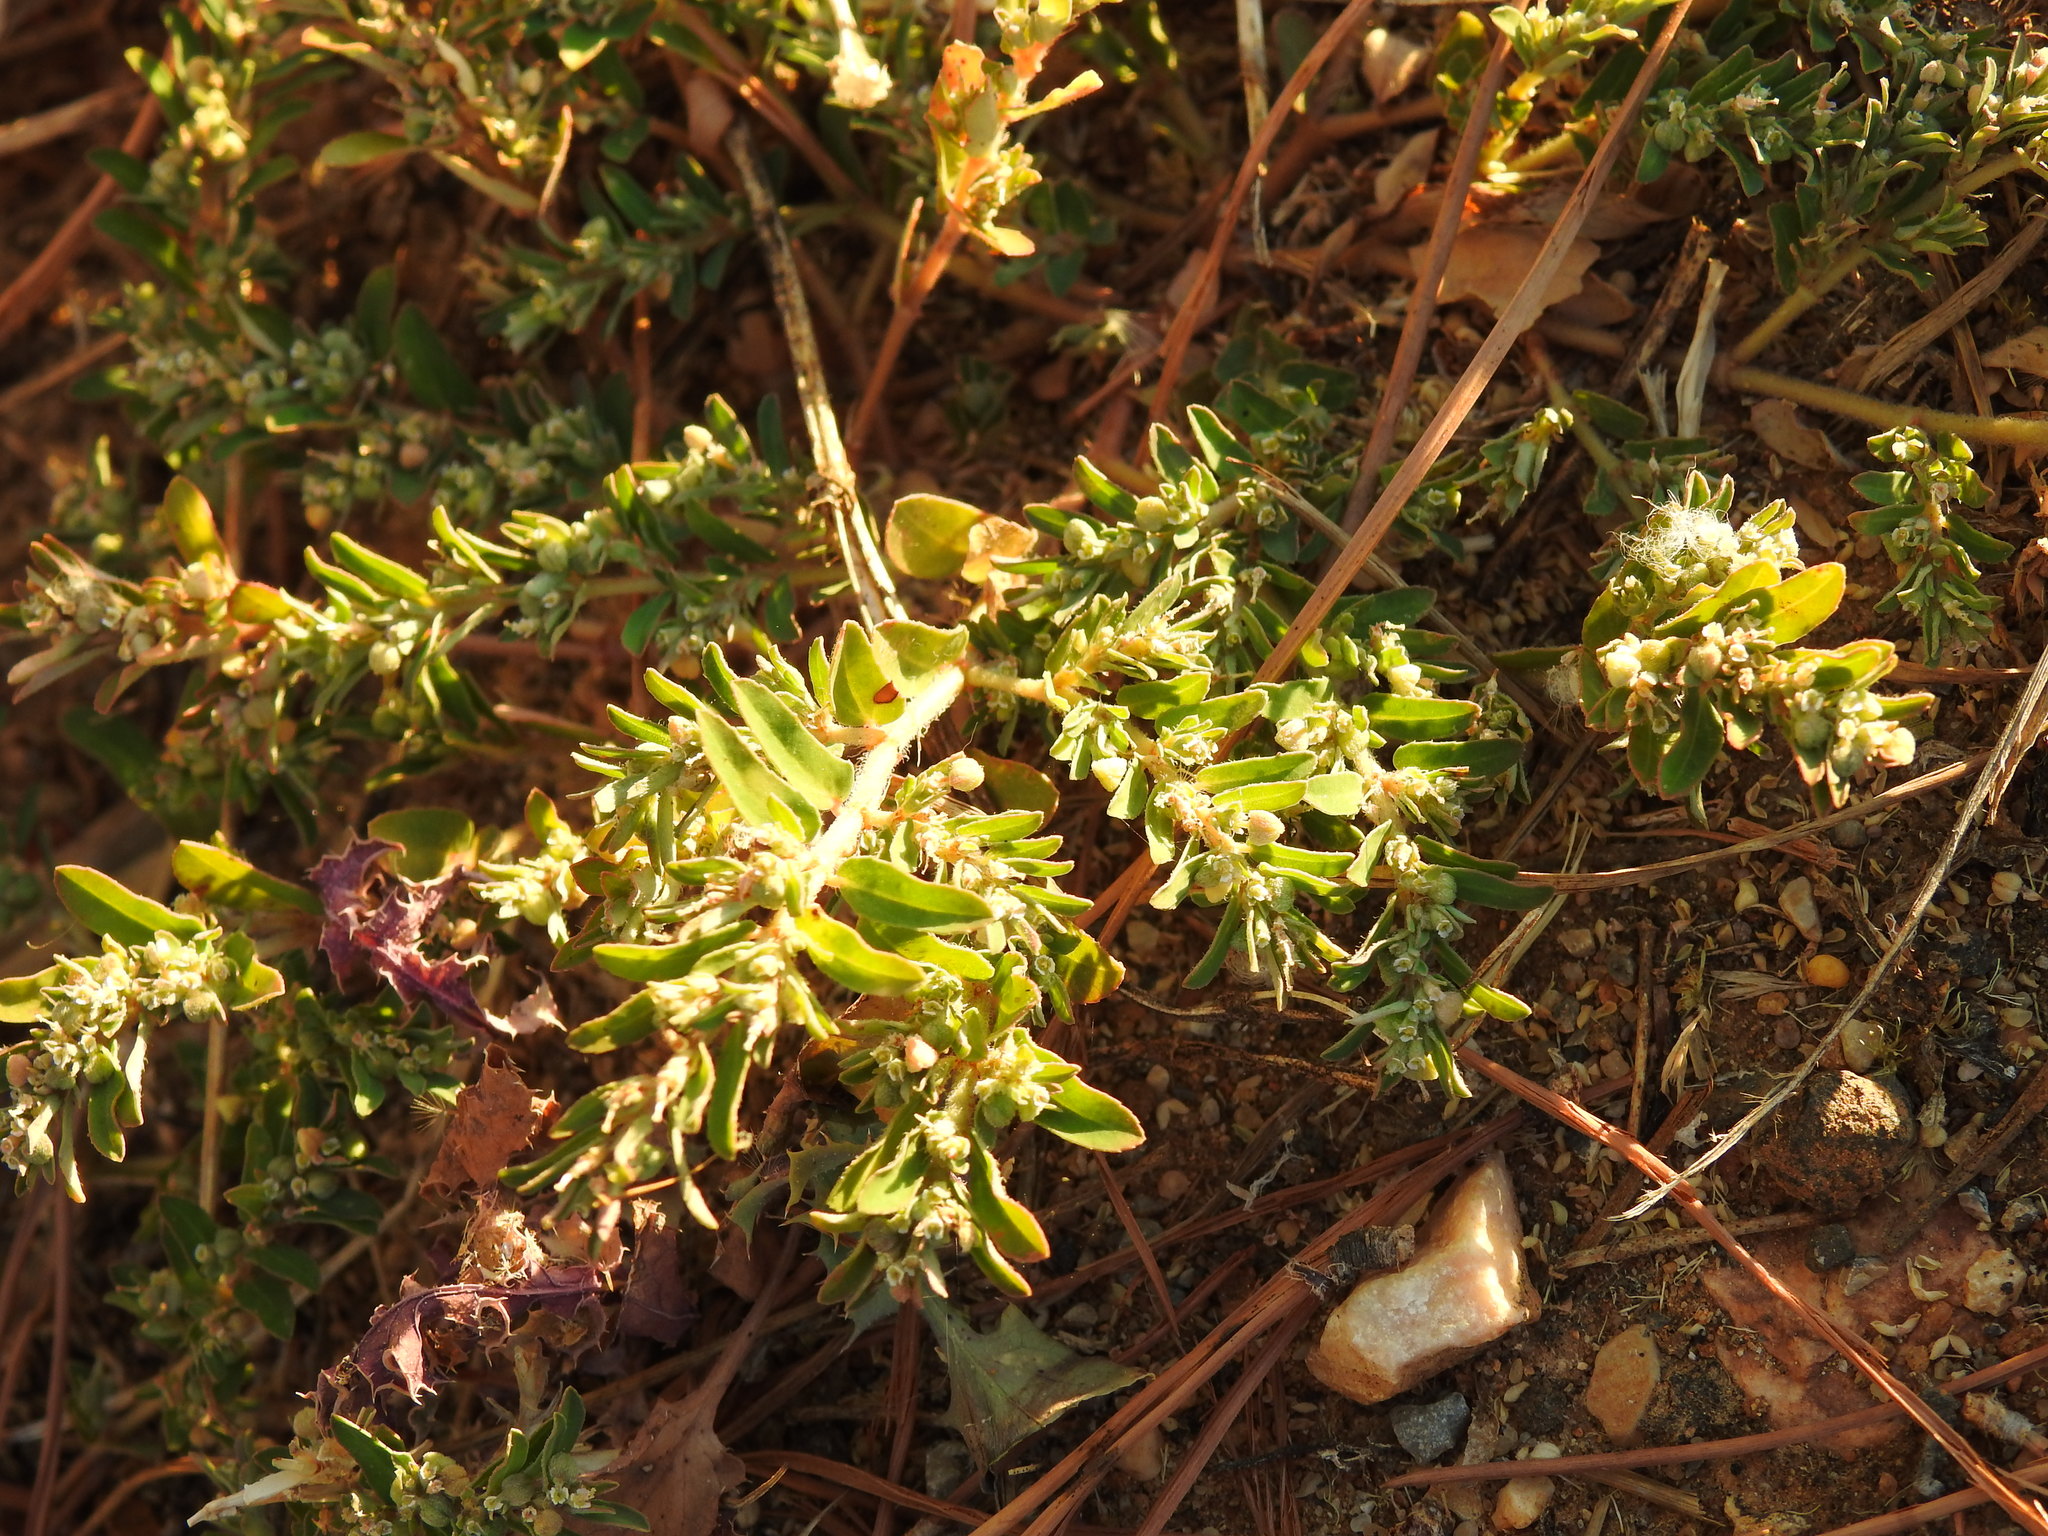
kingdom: Plantae
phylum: Tracheophyta
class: Magnoliopsida
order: Malpighiales
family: Euphorbiaceae
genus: Euphorbia
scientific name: Euphorbia maculata
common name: Spotted spurge
